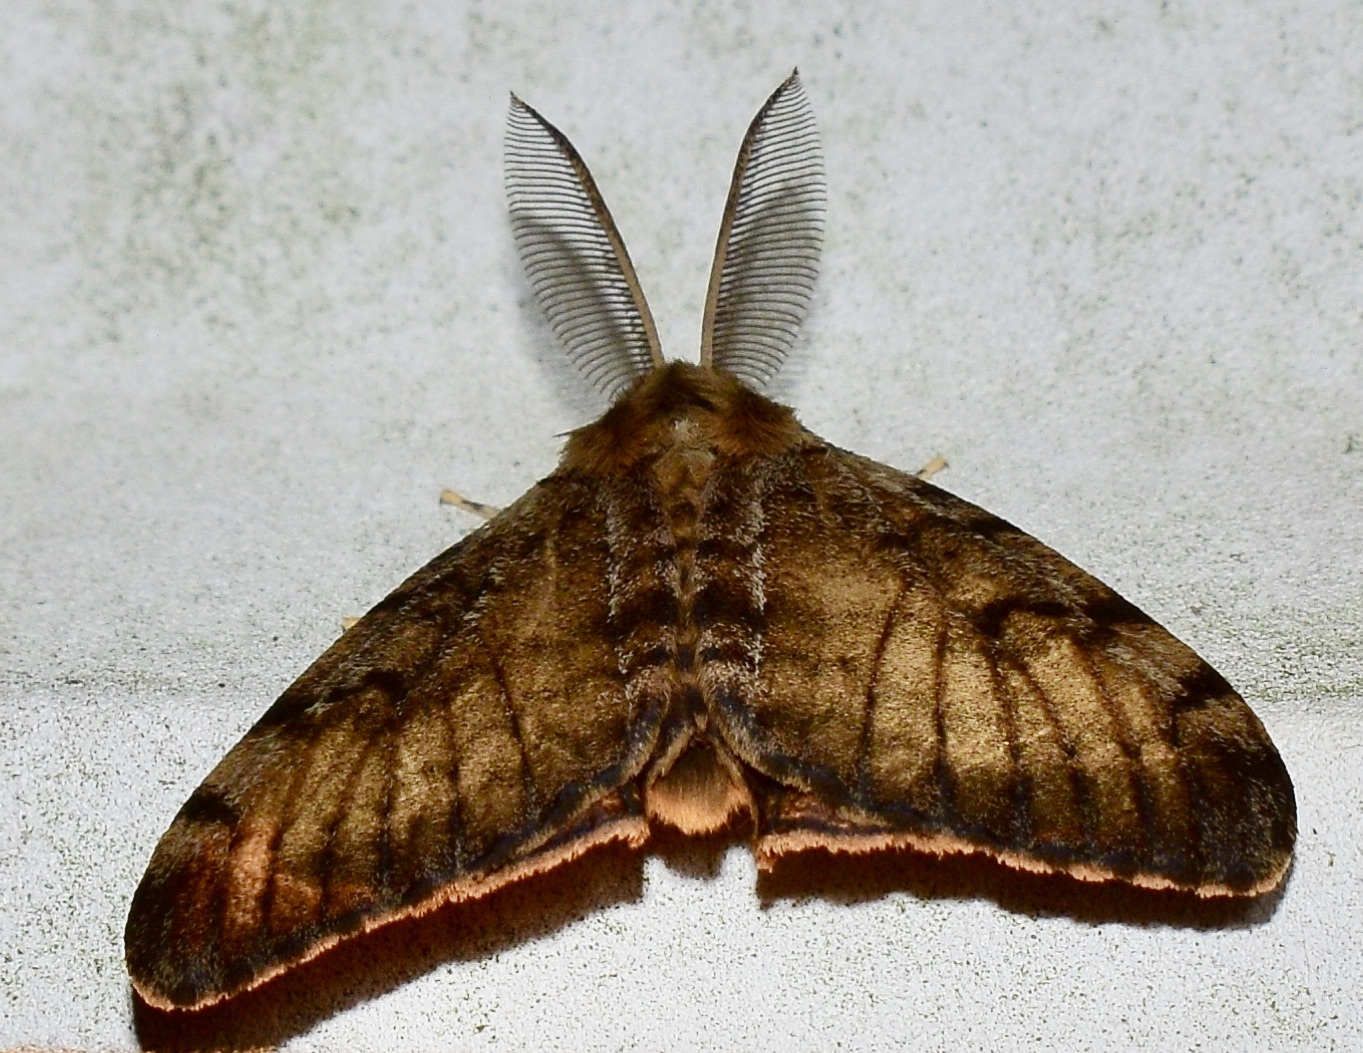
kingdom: Animalia
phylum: Arthropoda
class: Insecta
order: Lepidoptera
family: Erebidae
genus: Lymantria
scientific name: Lymantria dispar
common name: Gypsy moth
